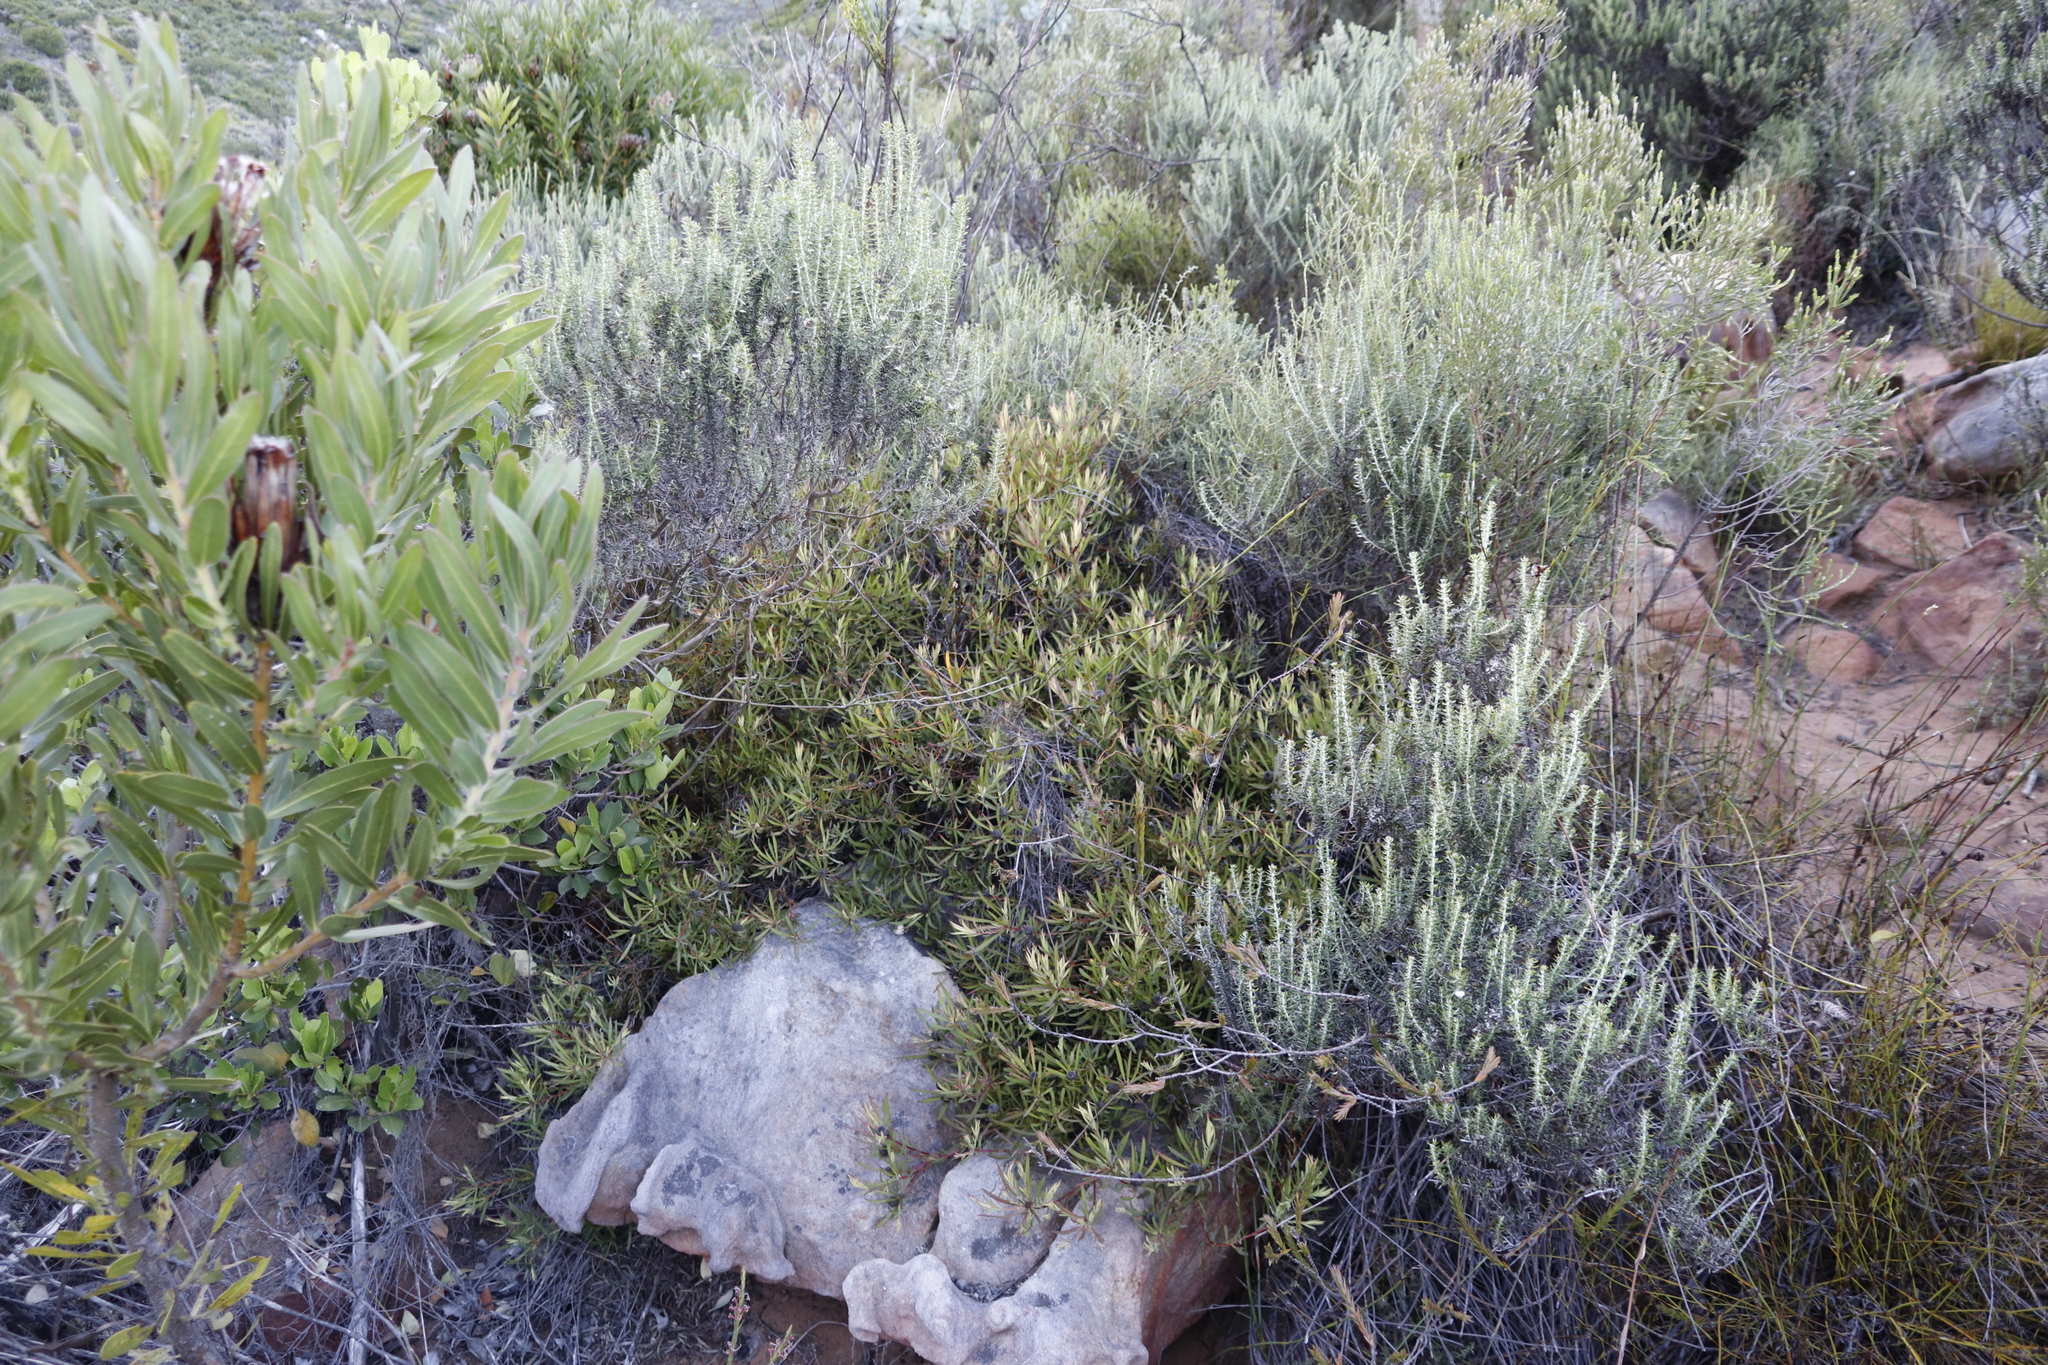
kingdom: Plantae
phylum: Tracheophyta
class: Magnoliopsida
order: Proteales
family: Proteaceae
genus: Leucadendron
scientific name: Leucadendron salignum
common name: Common sunshine conebush
